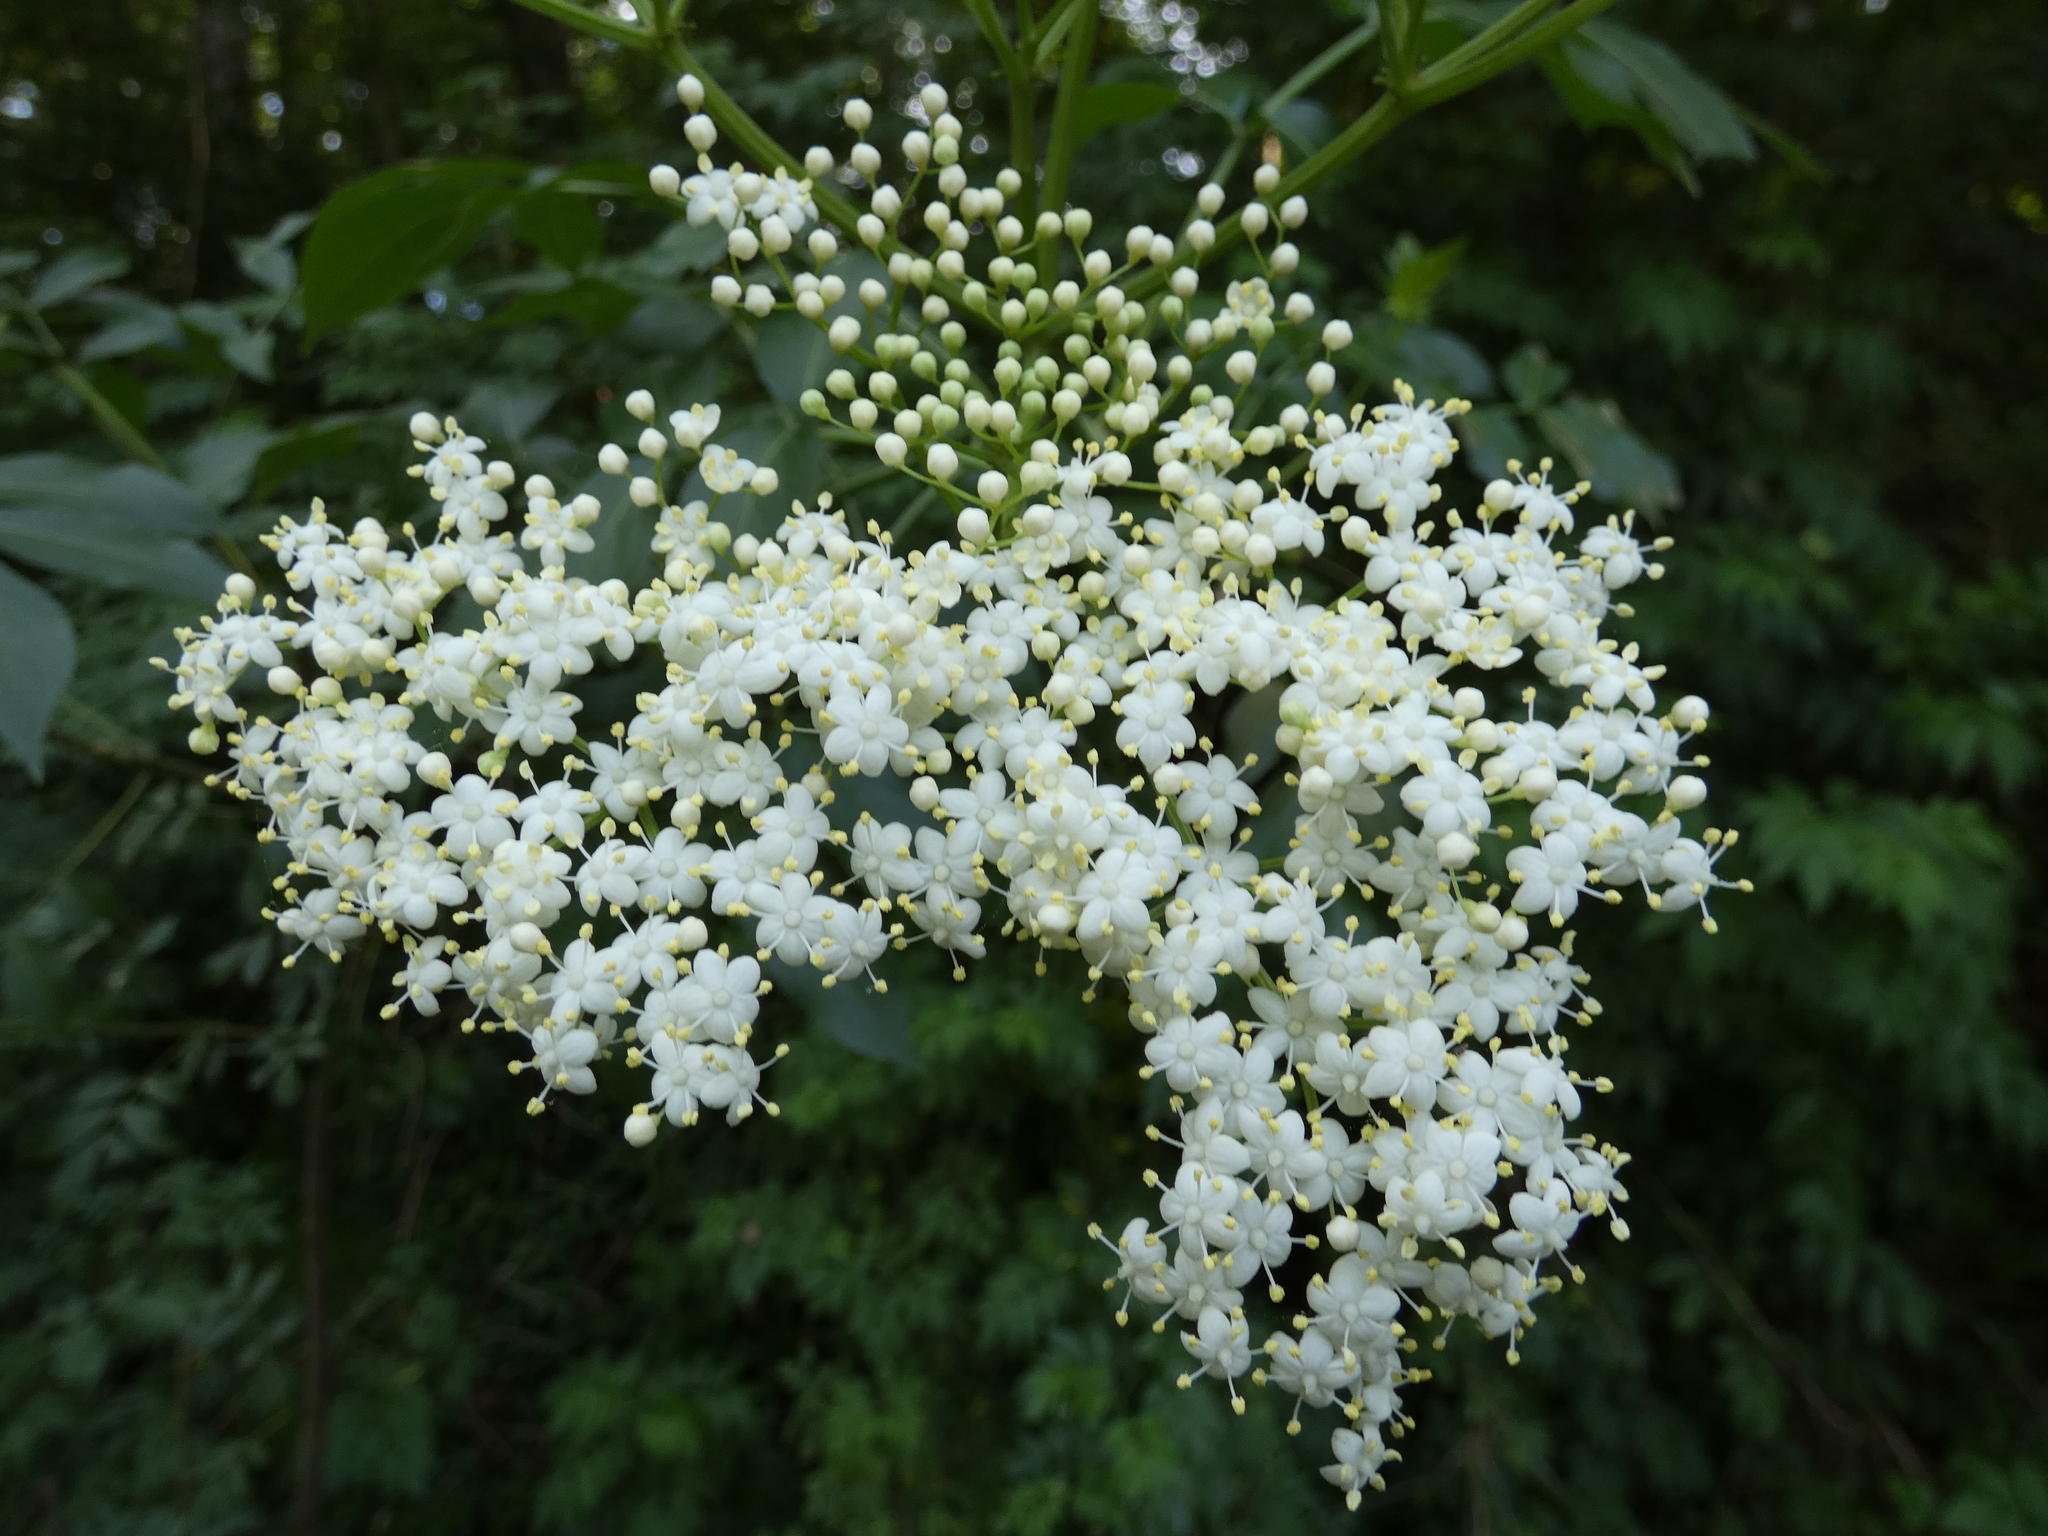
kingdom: Plantae
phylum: Tracheophyta
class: Magnoliopsida
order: Dipsacales
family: Viburnaceae
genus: Sambucus
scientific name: Sambucus canadensis
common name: American elder
